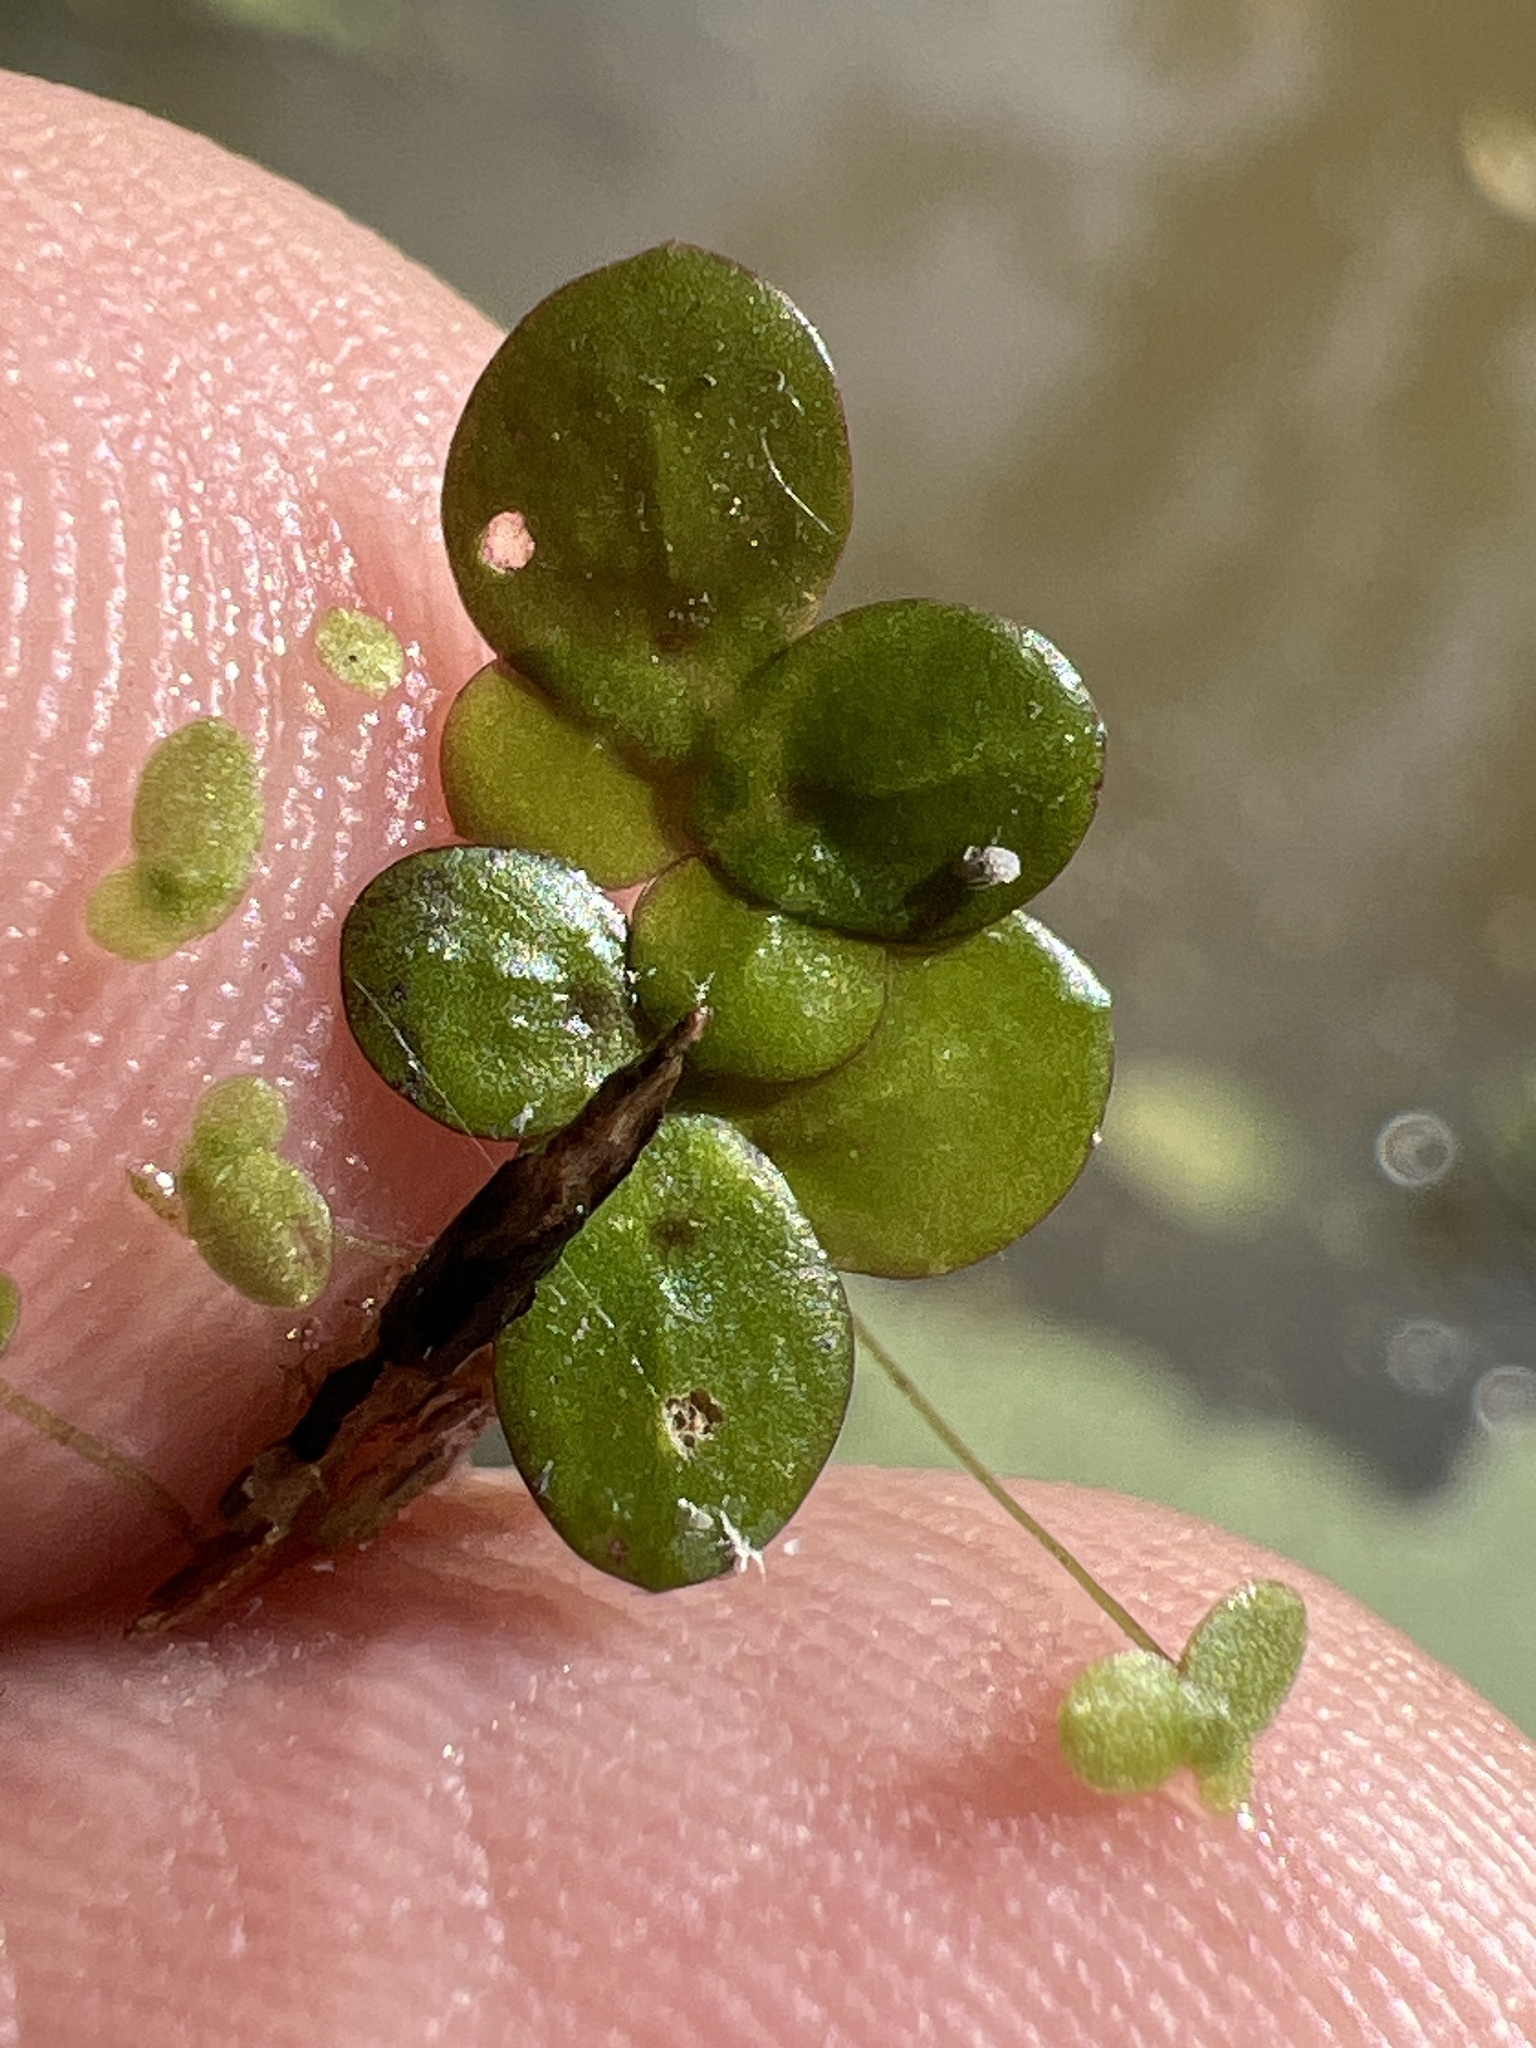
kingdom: Plantae
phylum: Tracheophyta
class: Liliopsida
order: Alismatales
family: Araceae
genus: Spirodela
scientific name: Spirodela polyrhiza
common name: Great duckweed
